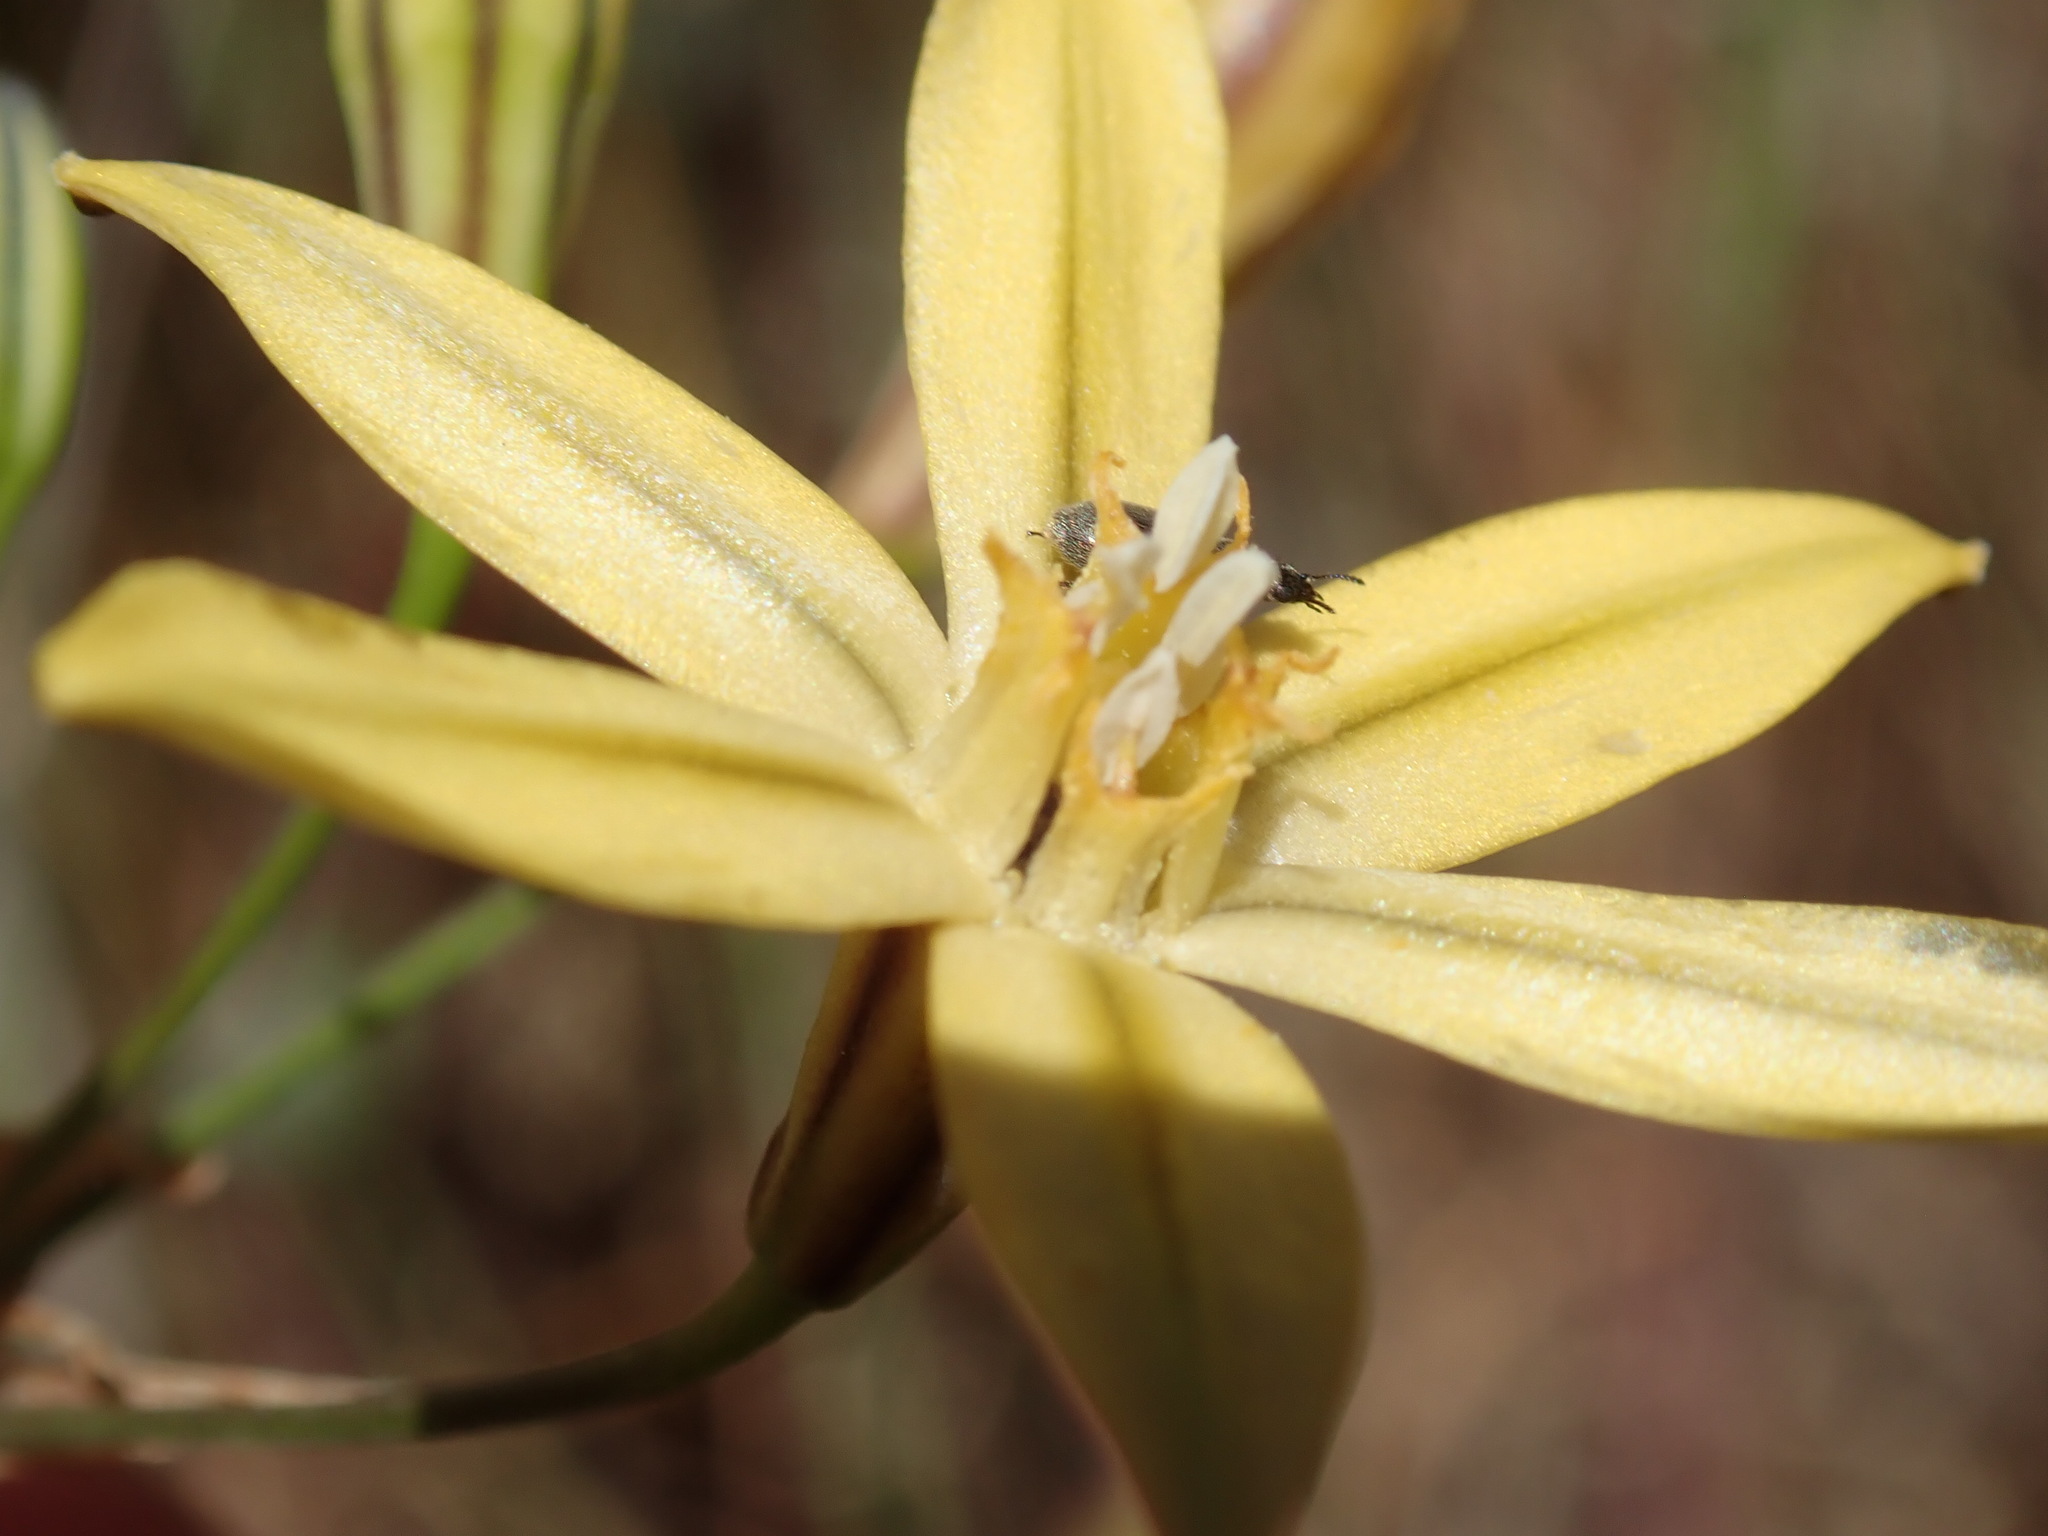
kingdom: Plantae
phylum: Tracheophyta
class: Liliopsida
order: Asparagales
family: Asparagaceae
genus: Triteleia
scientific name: Triteleia ixioides
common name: Yellow-brodiaea
